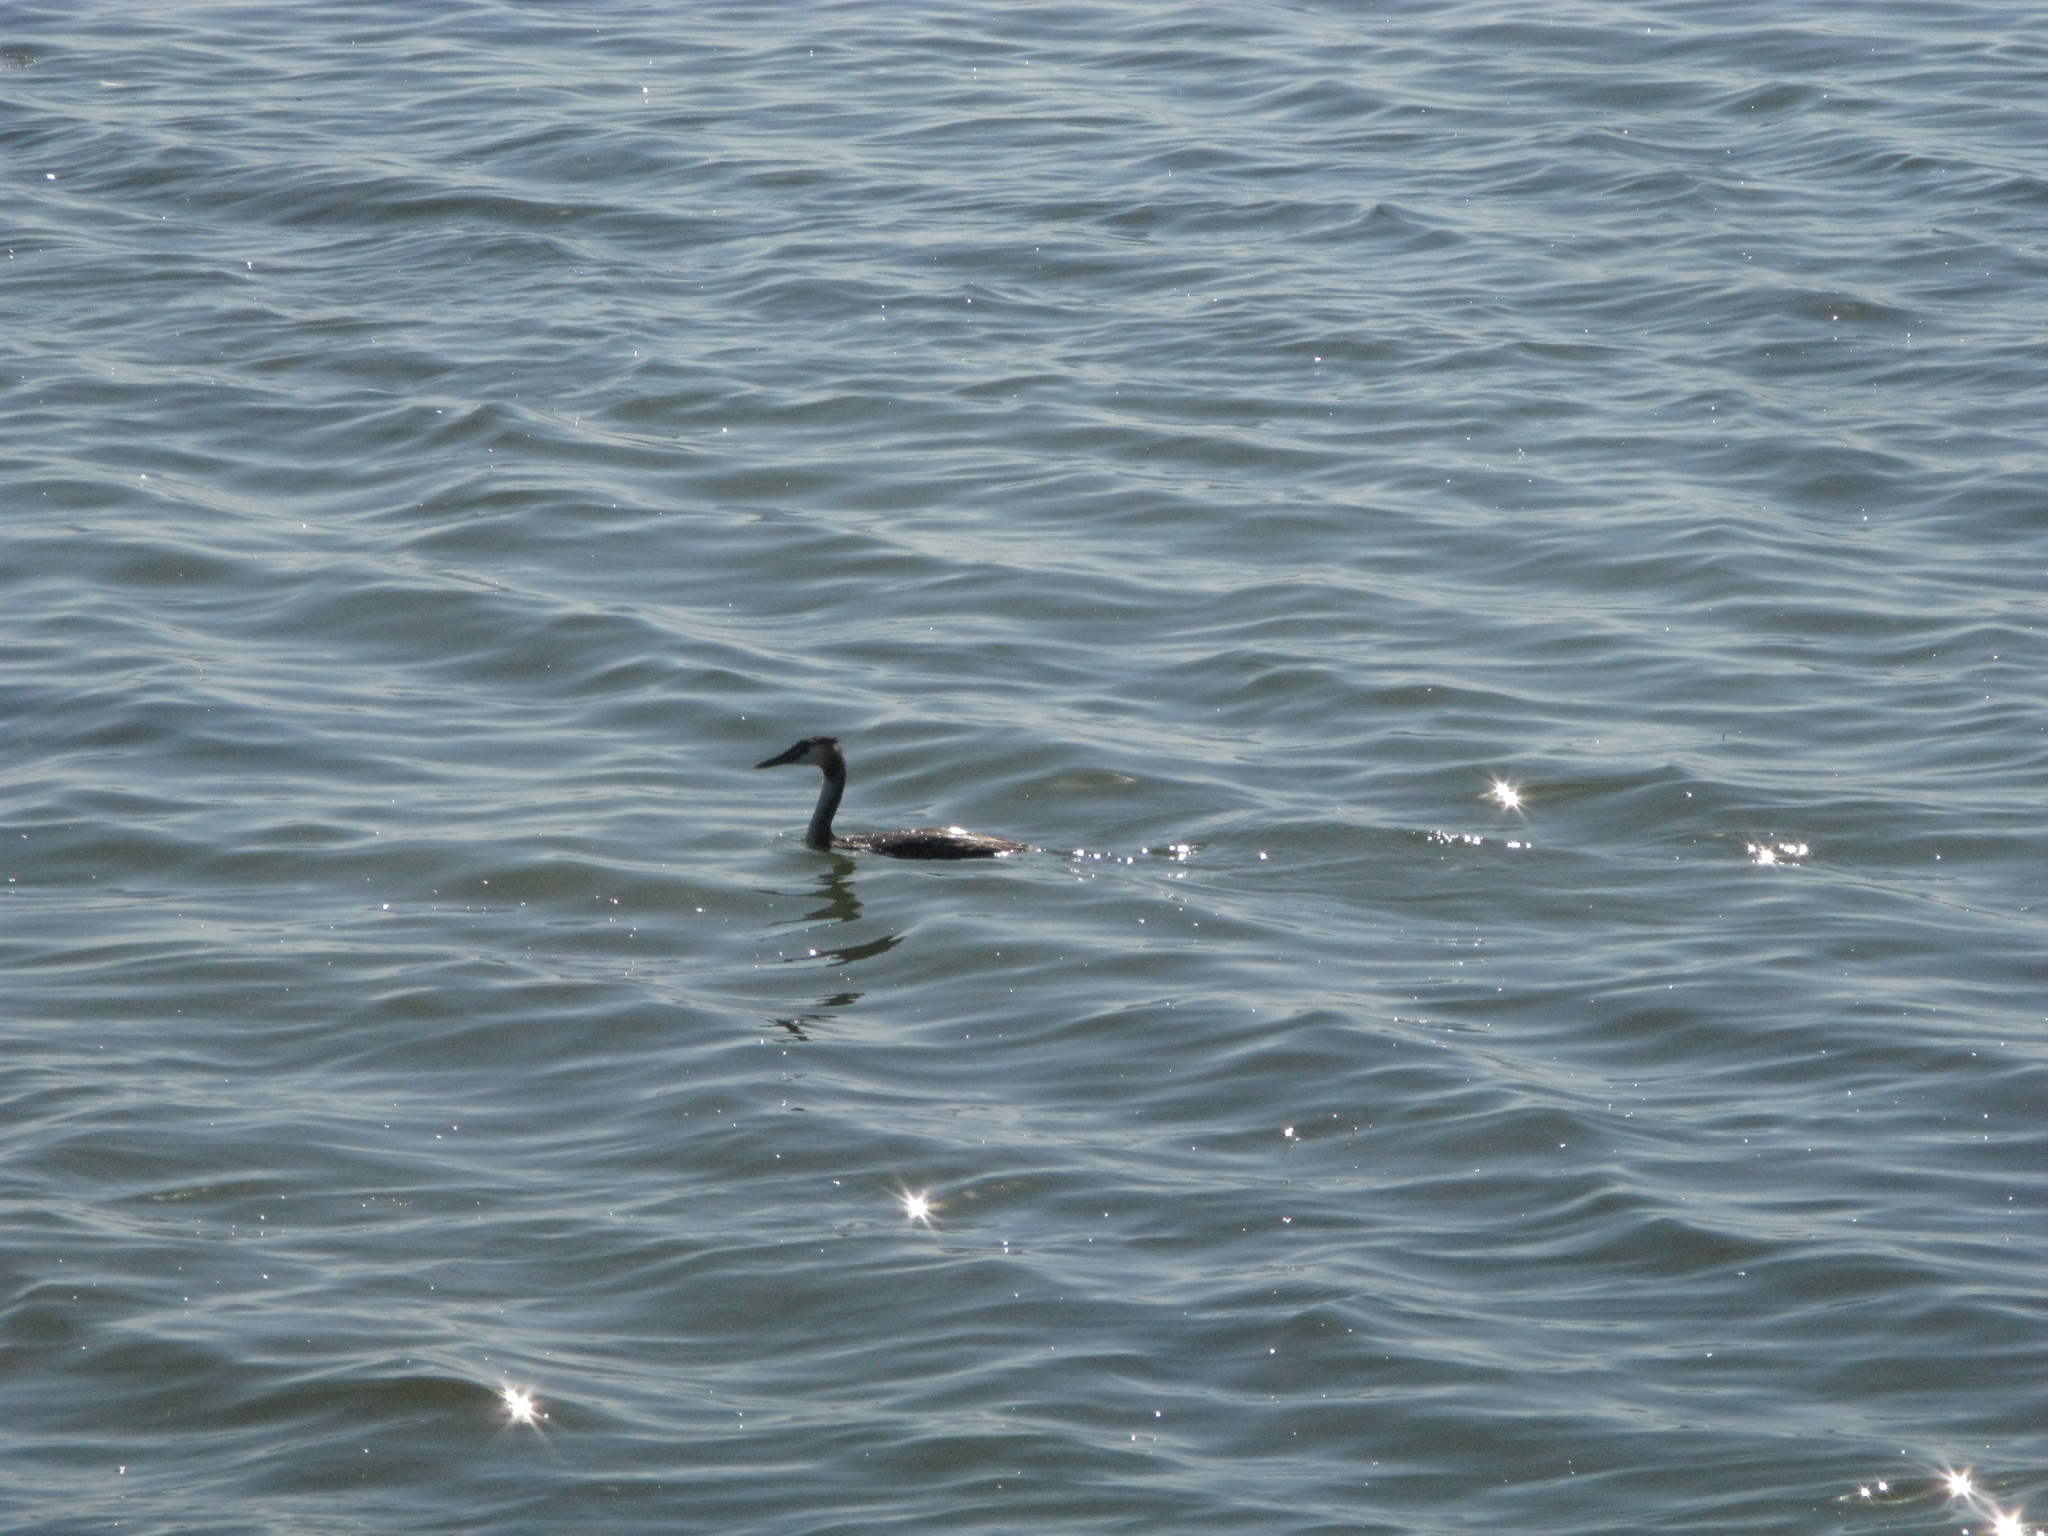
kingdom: Animalia
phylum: Chordata
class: Aves
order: Podicipediformes
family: Podicipedidae
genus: Podiceps
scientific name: Podiceps cristatus
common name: Great crested grebe
